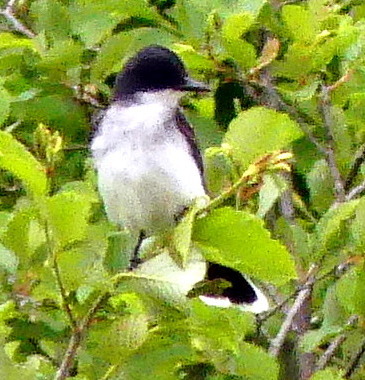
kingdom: Animalia
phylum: Chordata
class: Aves
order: Passeriformes
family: Tyrannidae
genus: Tyrannus
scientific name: Tyrannus tyrannus
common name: Eastern kingbird
